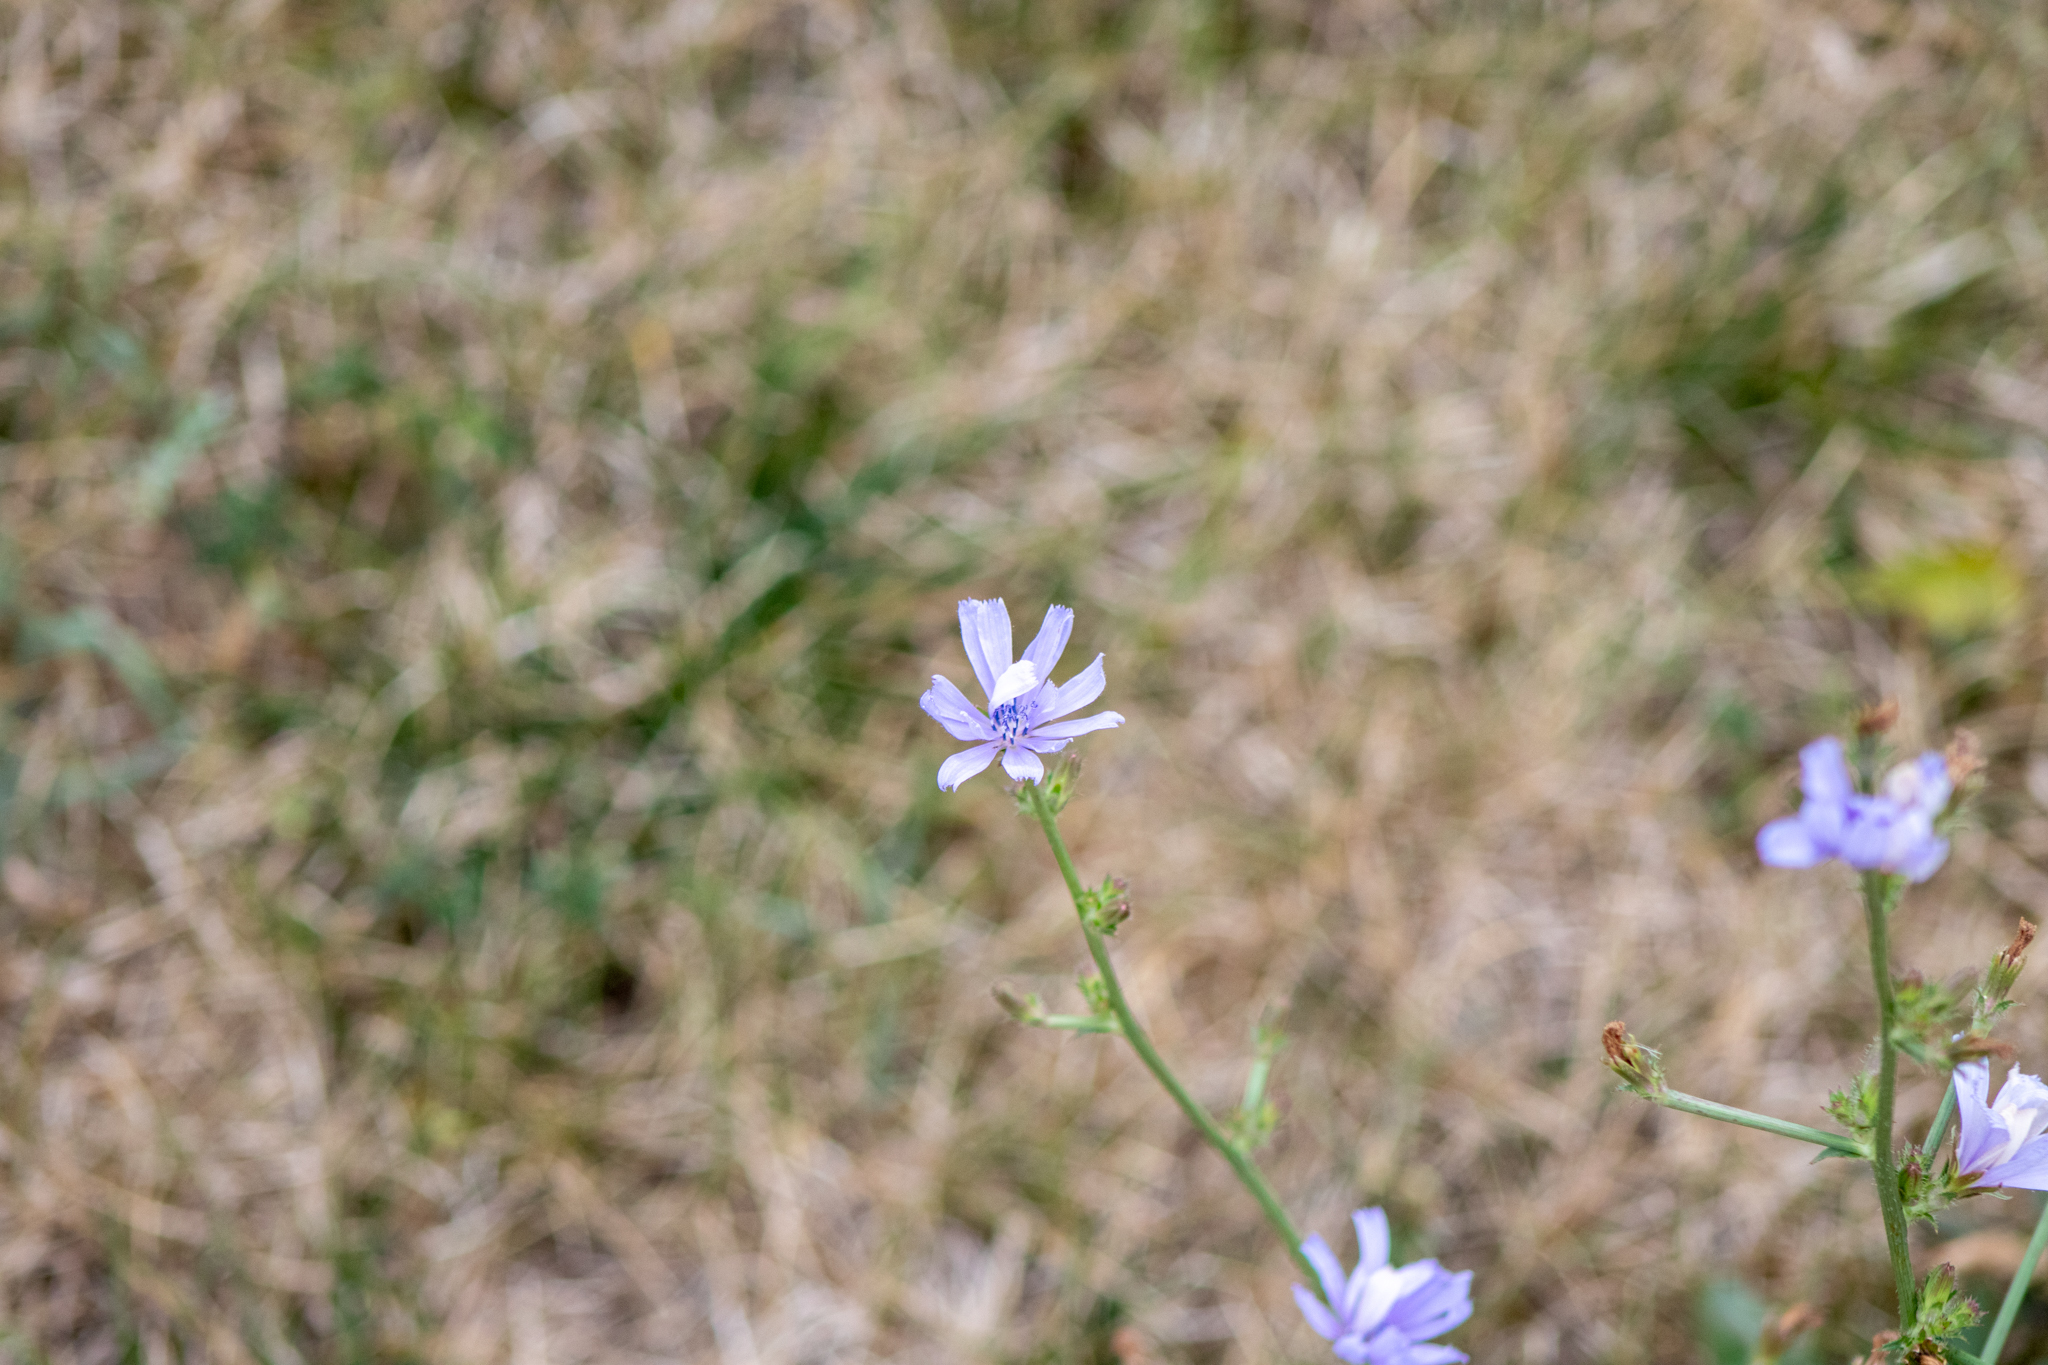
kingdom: Plantae
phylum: Tracheophyta
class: Magnoliopsida
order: Asterales
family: Asteraceae
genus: Cichorium
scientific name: Cichorium intybus
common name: Chicory
